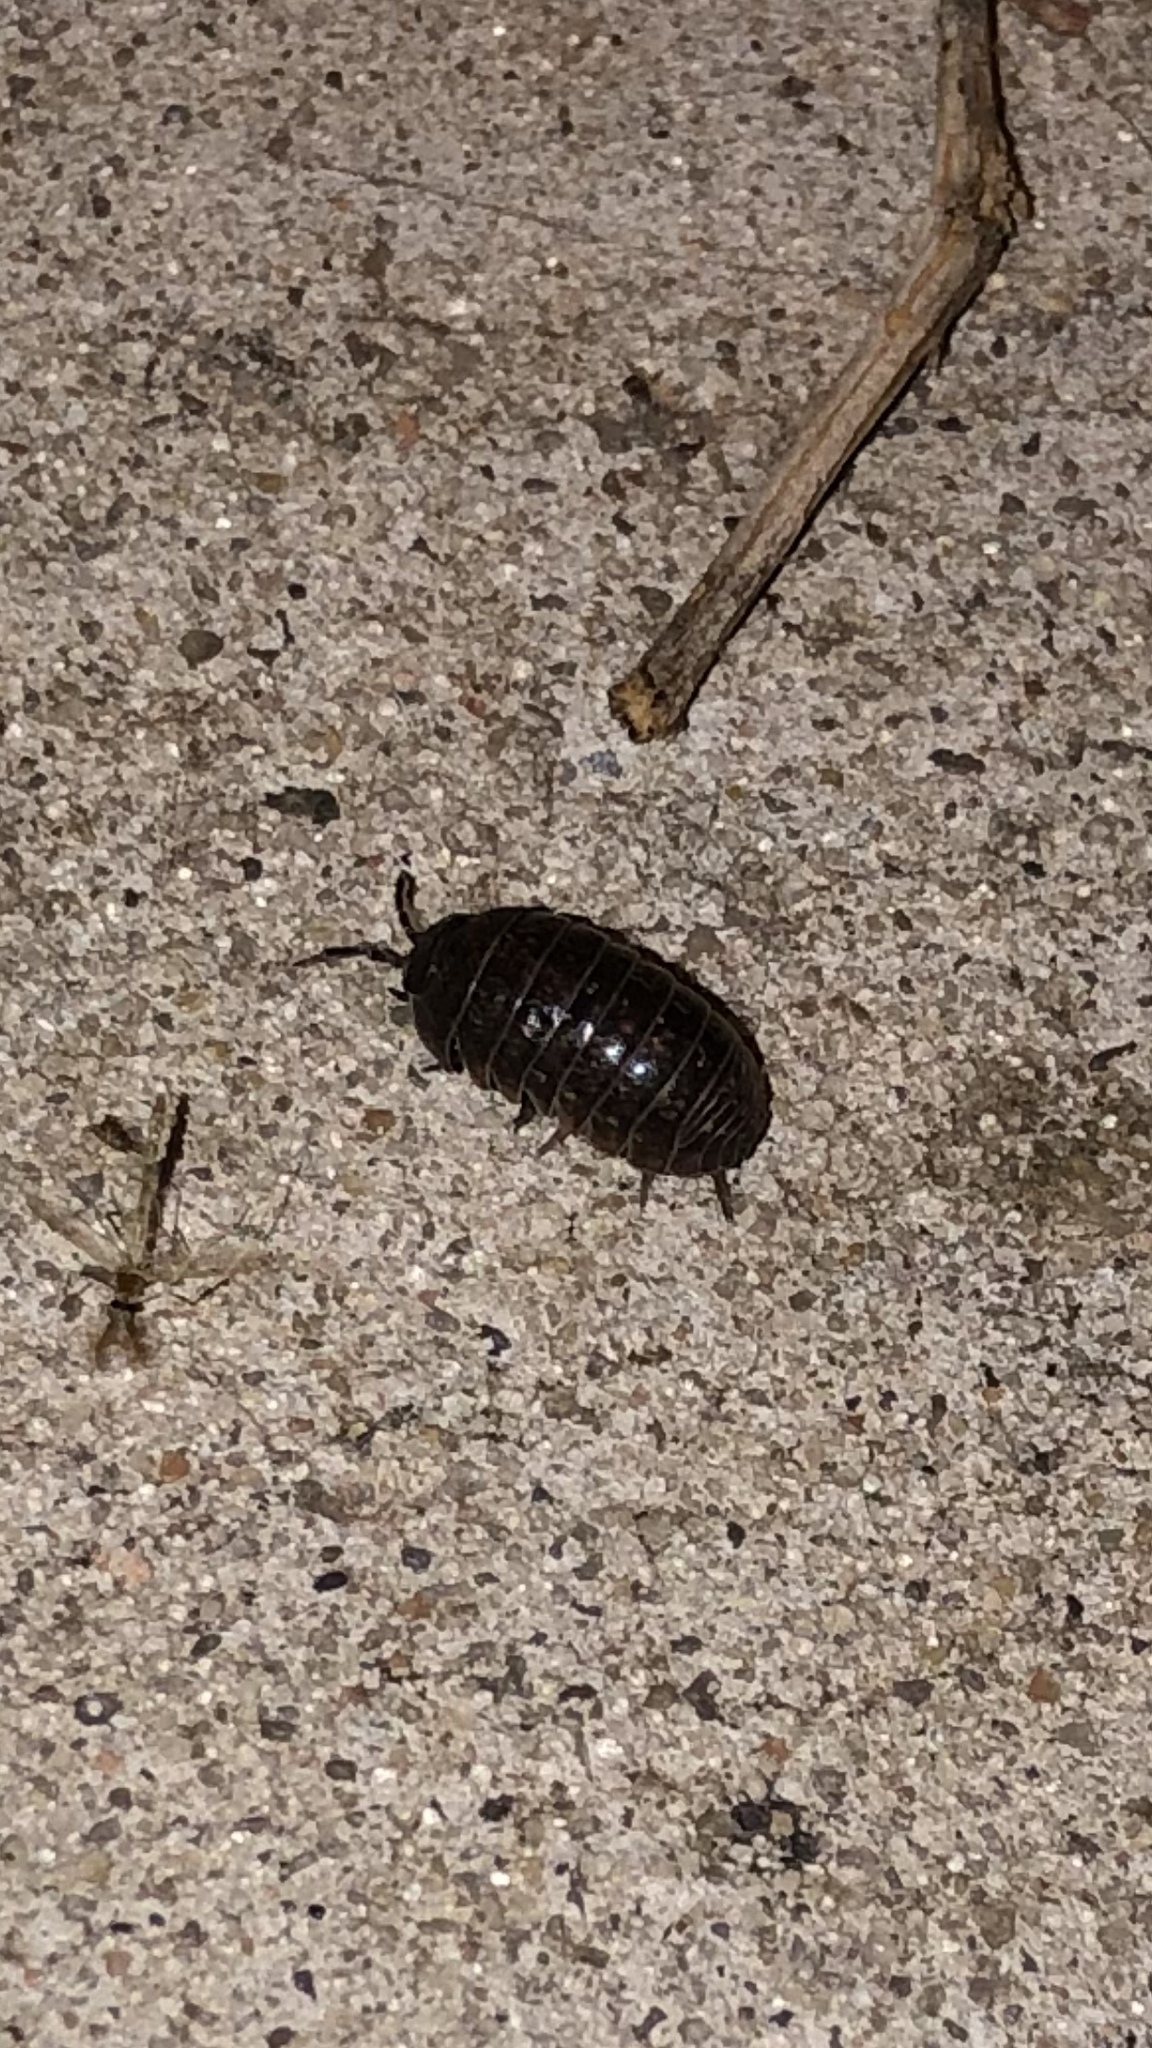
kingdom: Animalia
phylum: Arthropoda
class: Malacostraca
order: Isopoda
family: Armadillidiidae
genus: Armadillidium
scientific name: Armadillidium vulgare
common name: Common pill woodlouse
